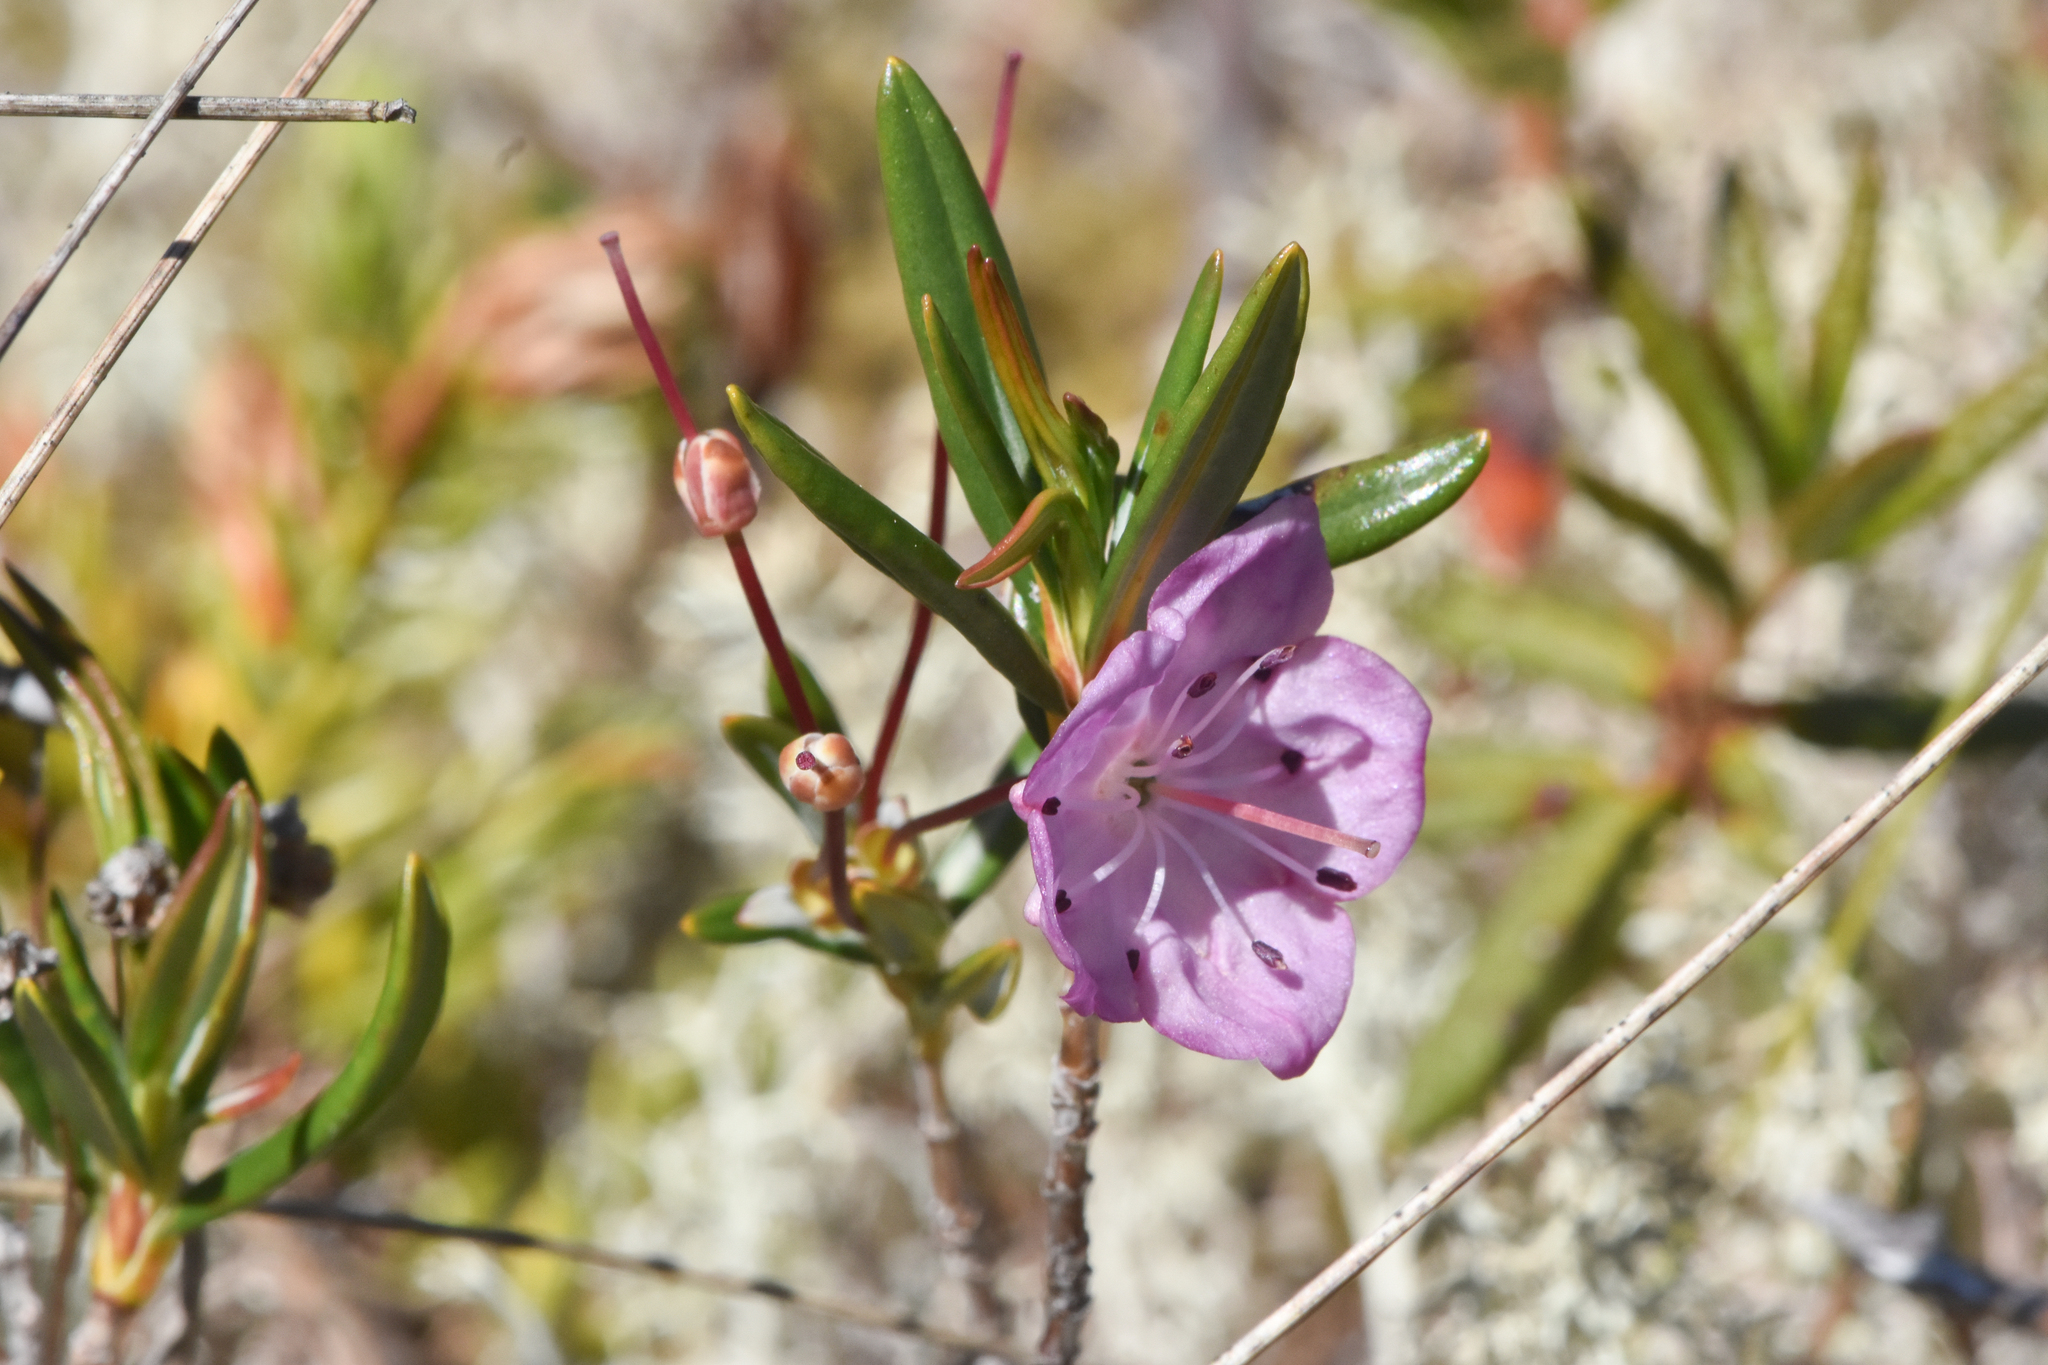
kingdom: Plantae
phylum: Tracheophyta
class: Magnoliopsida
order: Ericales
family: Ericaceae
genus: Kalmia
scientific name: Kalmia microphylla
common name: Alpine bog laurel
